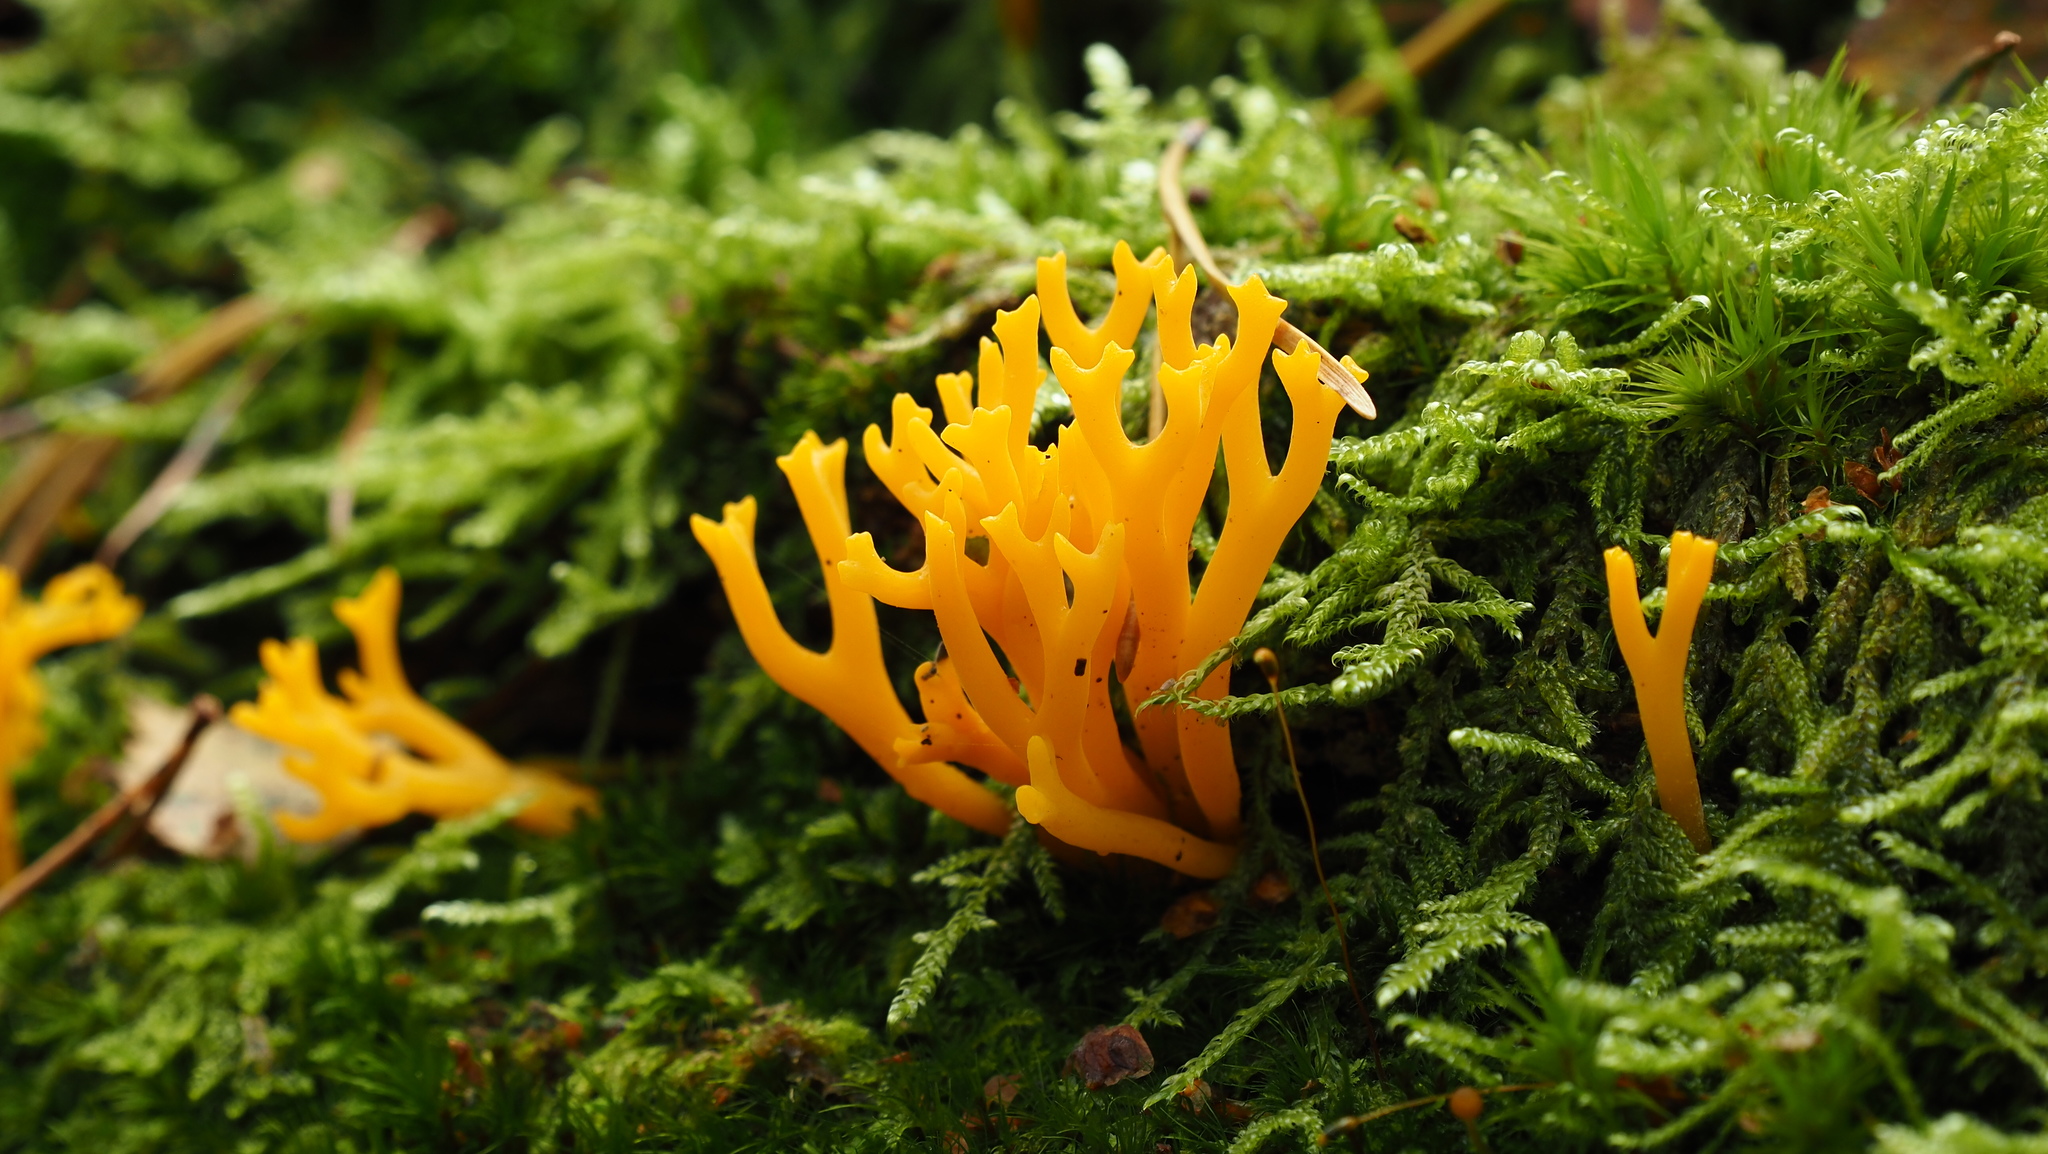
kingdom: Fungi
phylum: Basidiomycota
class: Dacrymycetes
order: Dacrymycetales
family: Dacrymycetaceae
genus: Calocera
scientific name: Calocera viscosa
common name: Yellow stagshorn
